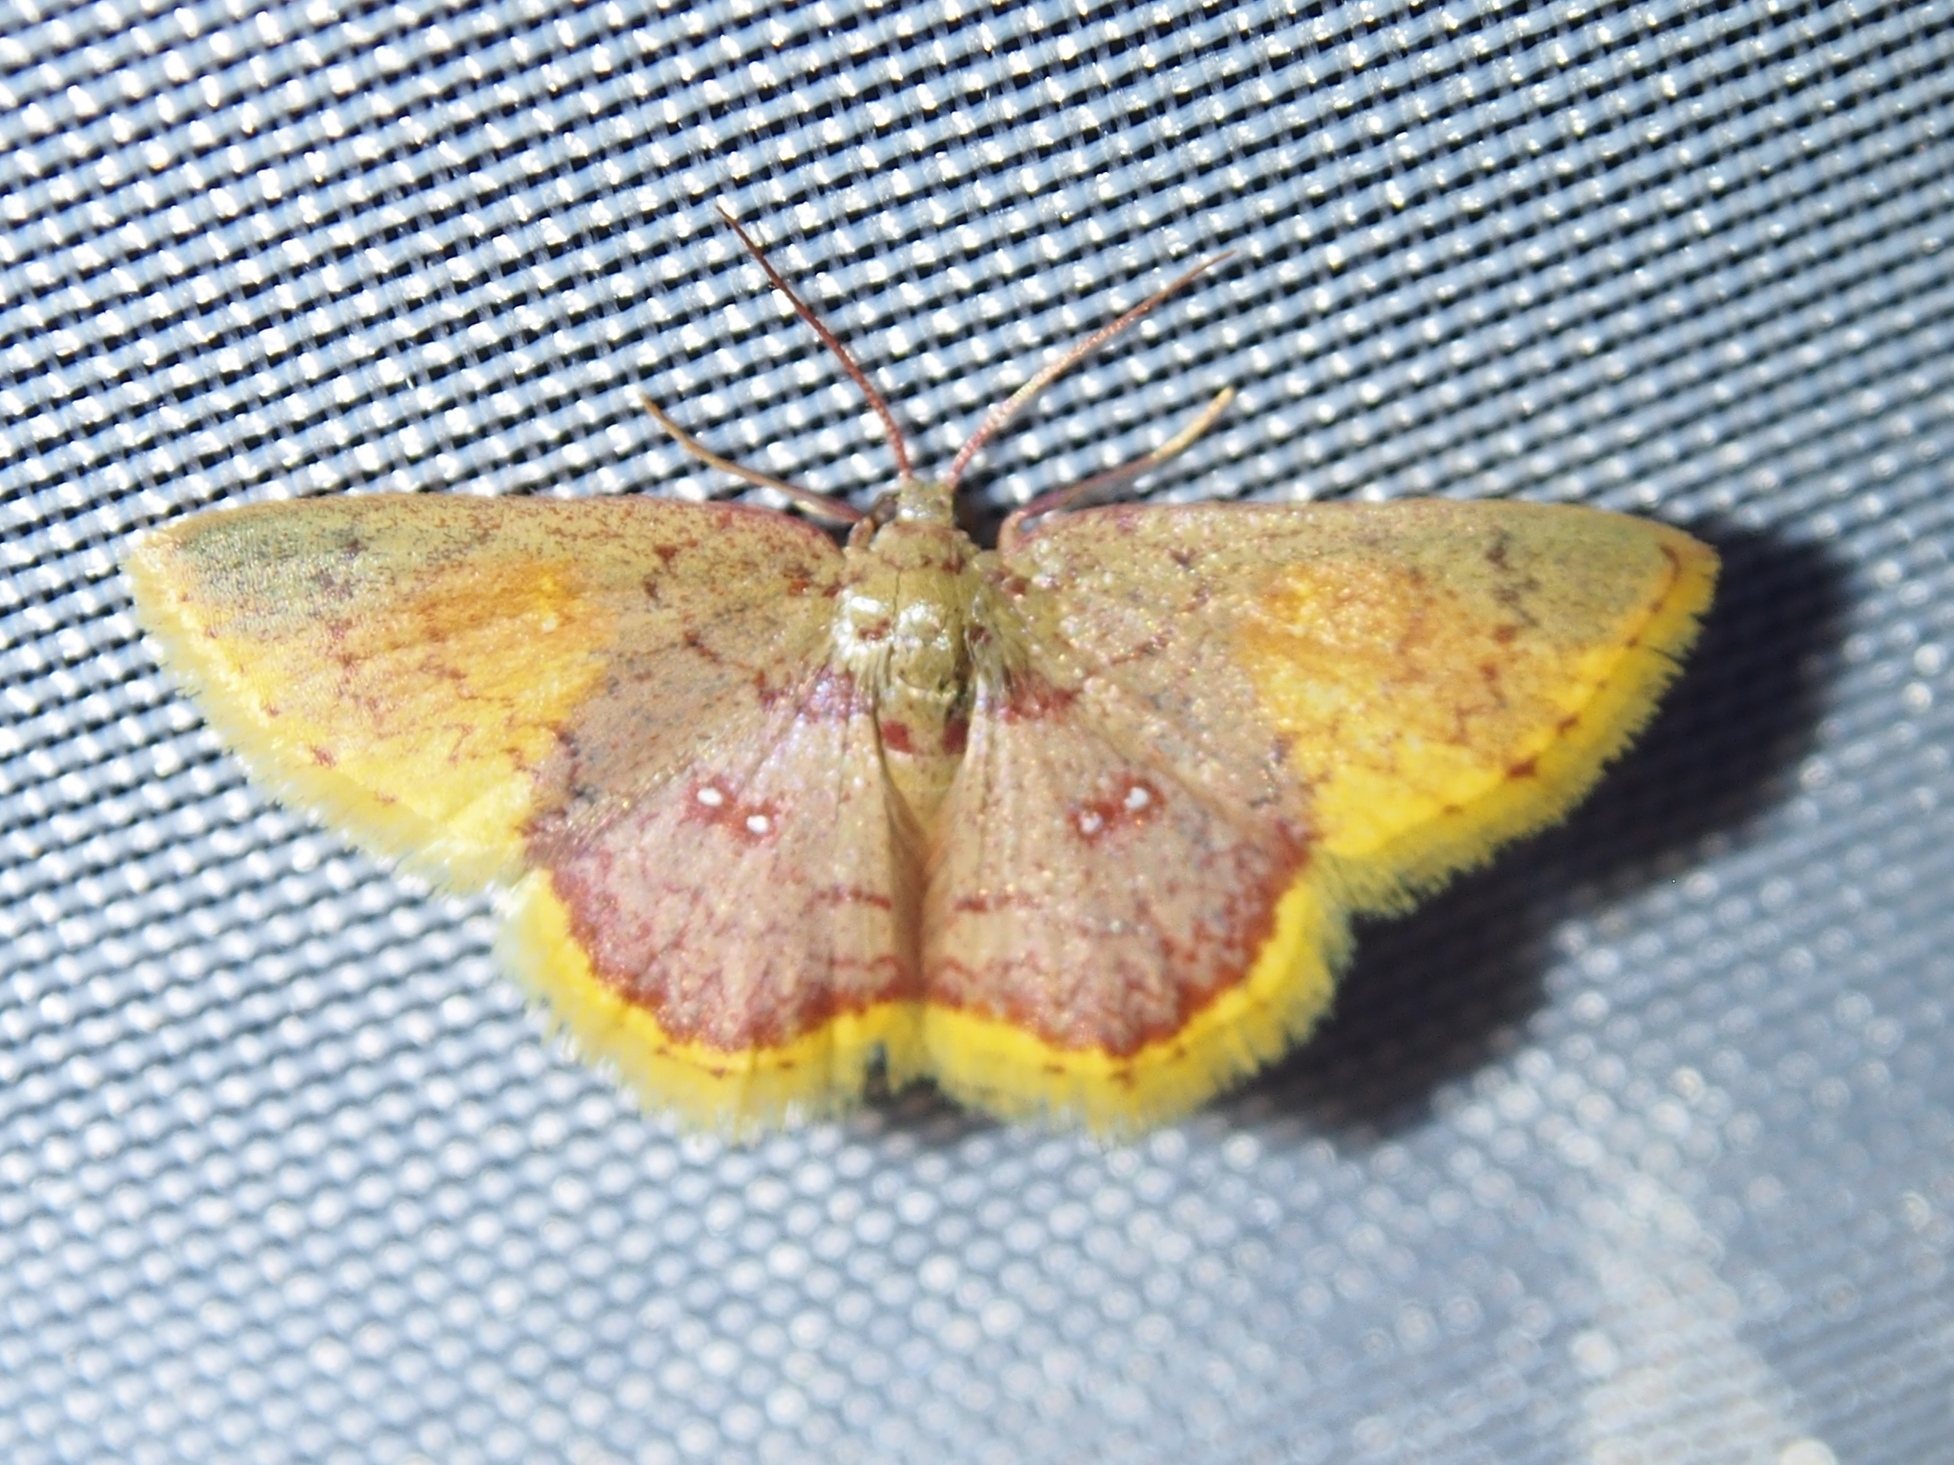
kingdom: Animalia
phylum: Arthropoda
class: Insecta
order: Lepidoptera
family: Geometridae
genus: Tricentra
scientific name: Tricentra fumata
